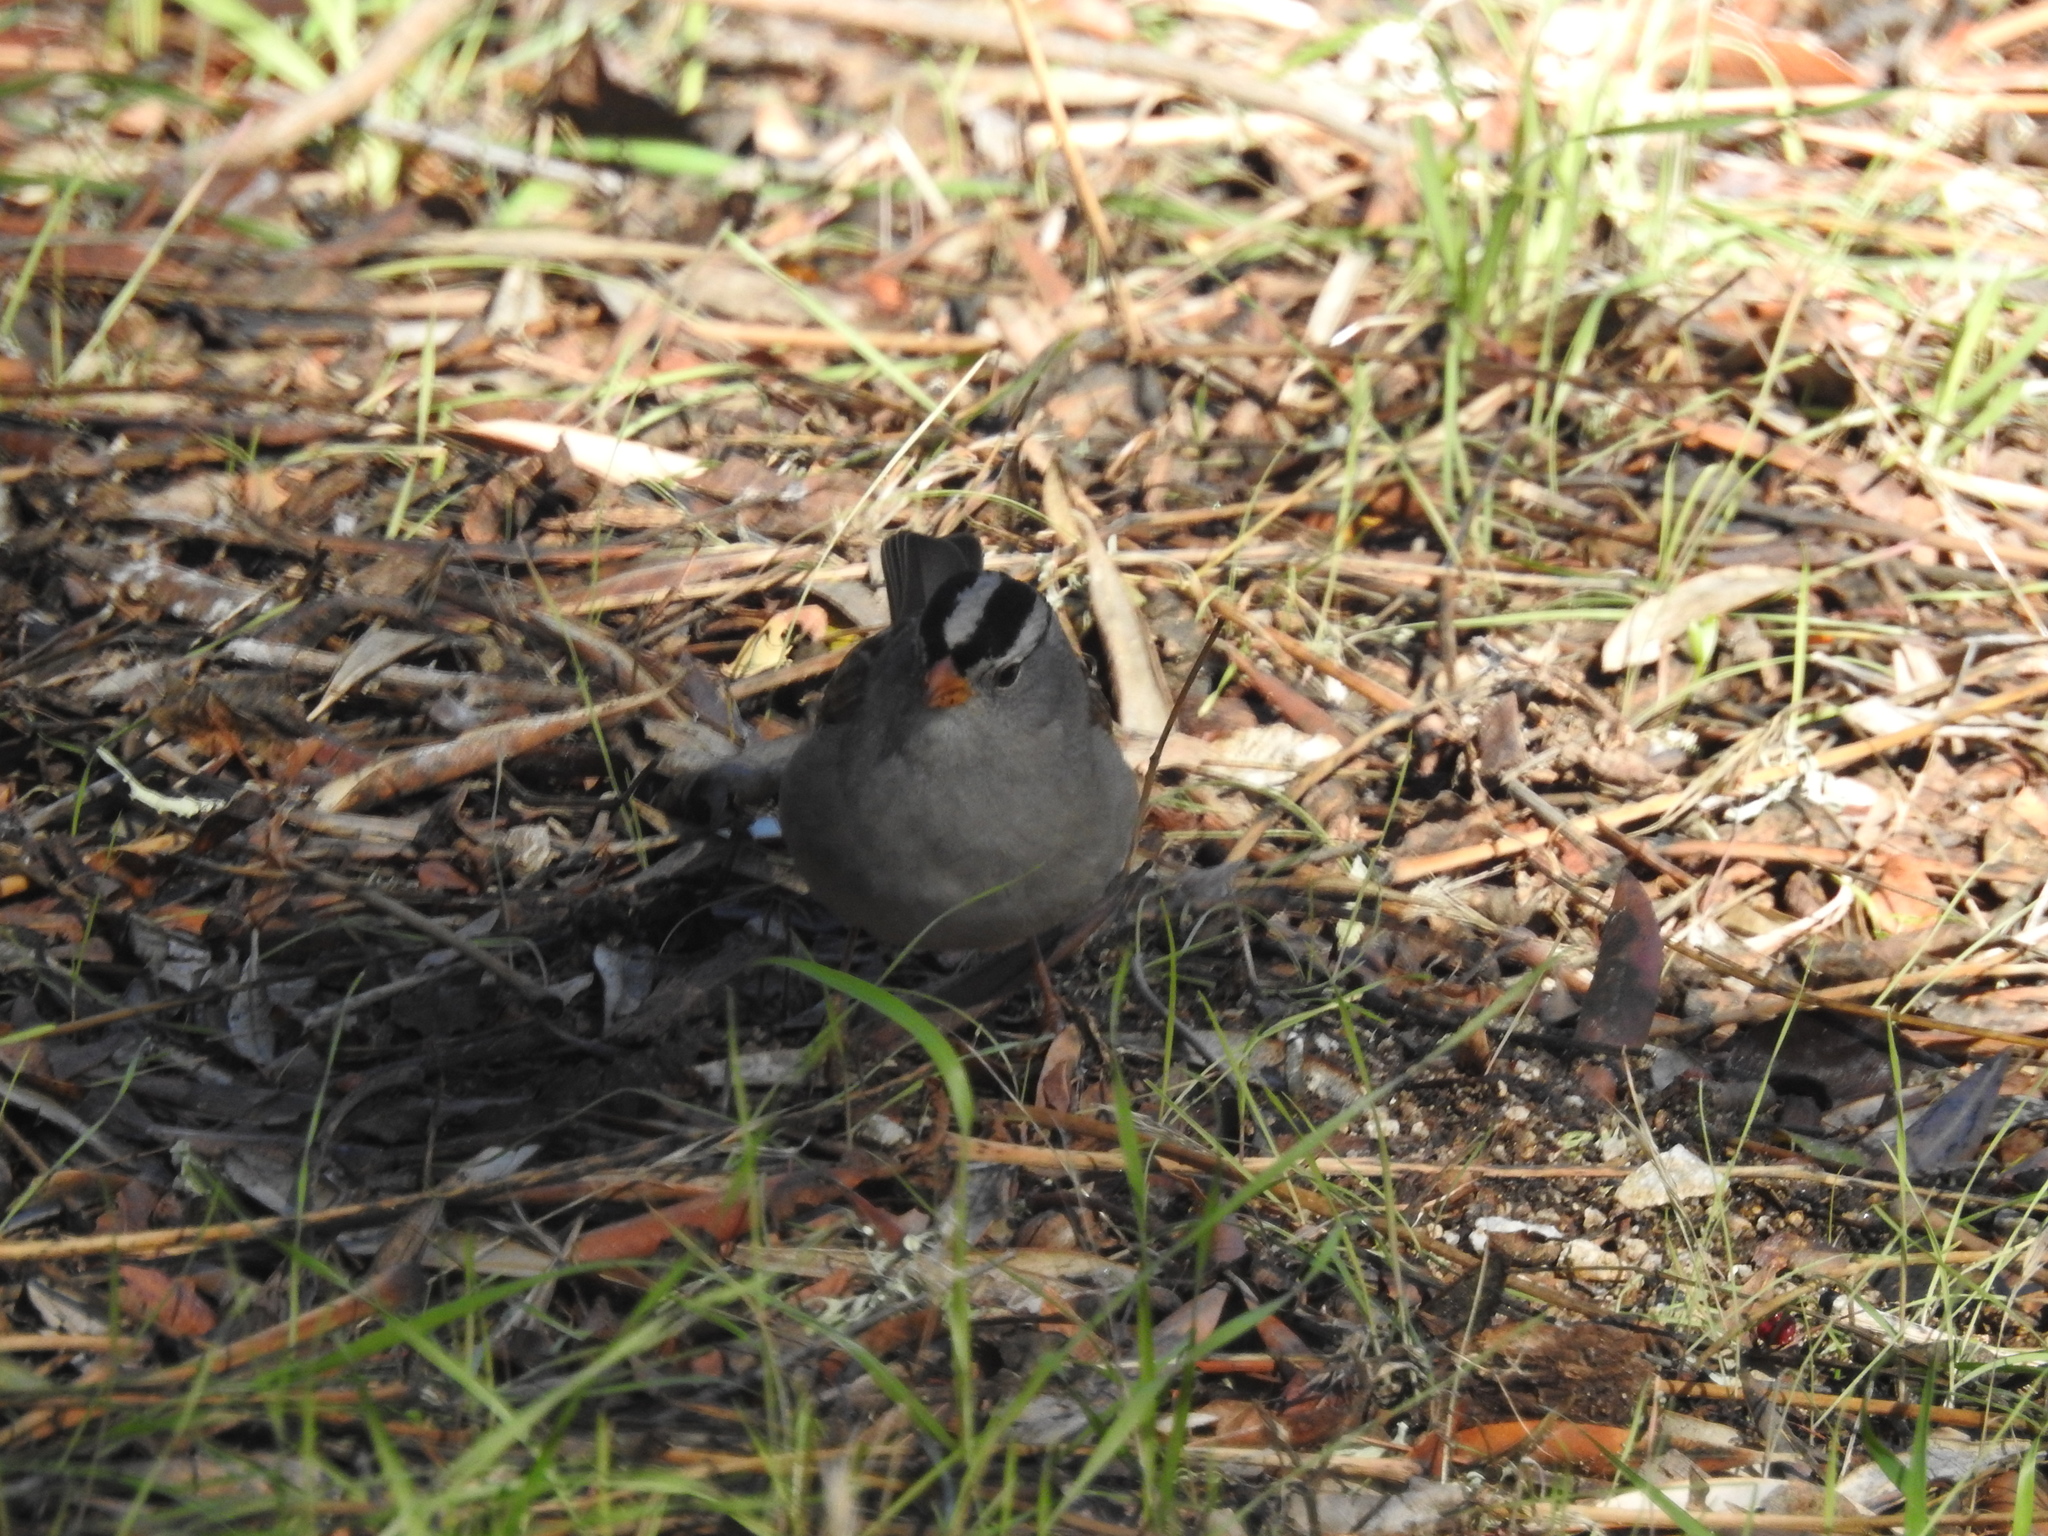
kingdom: Animalia
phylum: Chordata
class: Aves
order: Passeriformes
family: Passerellidae
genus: Zonotrichia
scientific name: Zonotrichia leucophrys
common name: White-crowned sparrow
